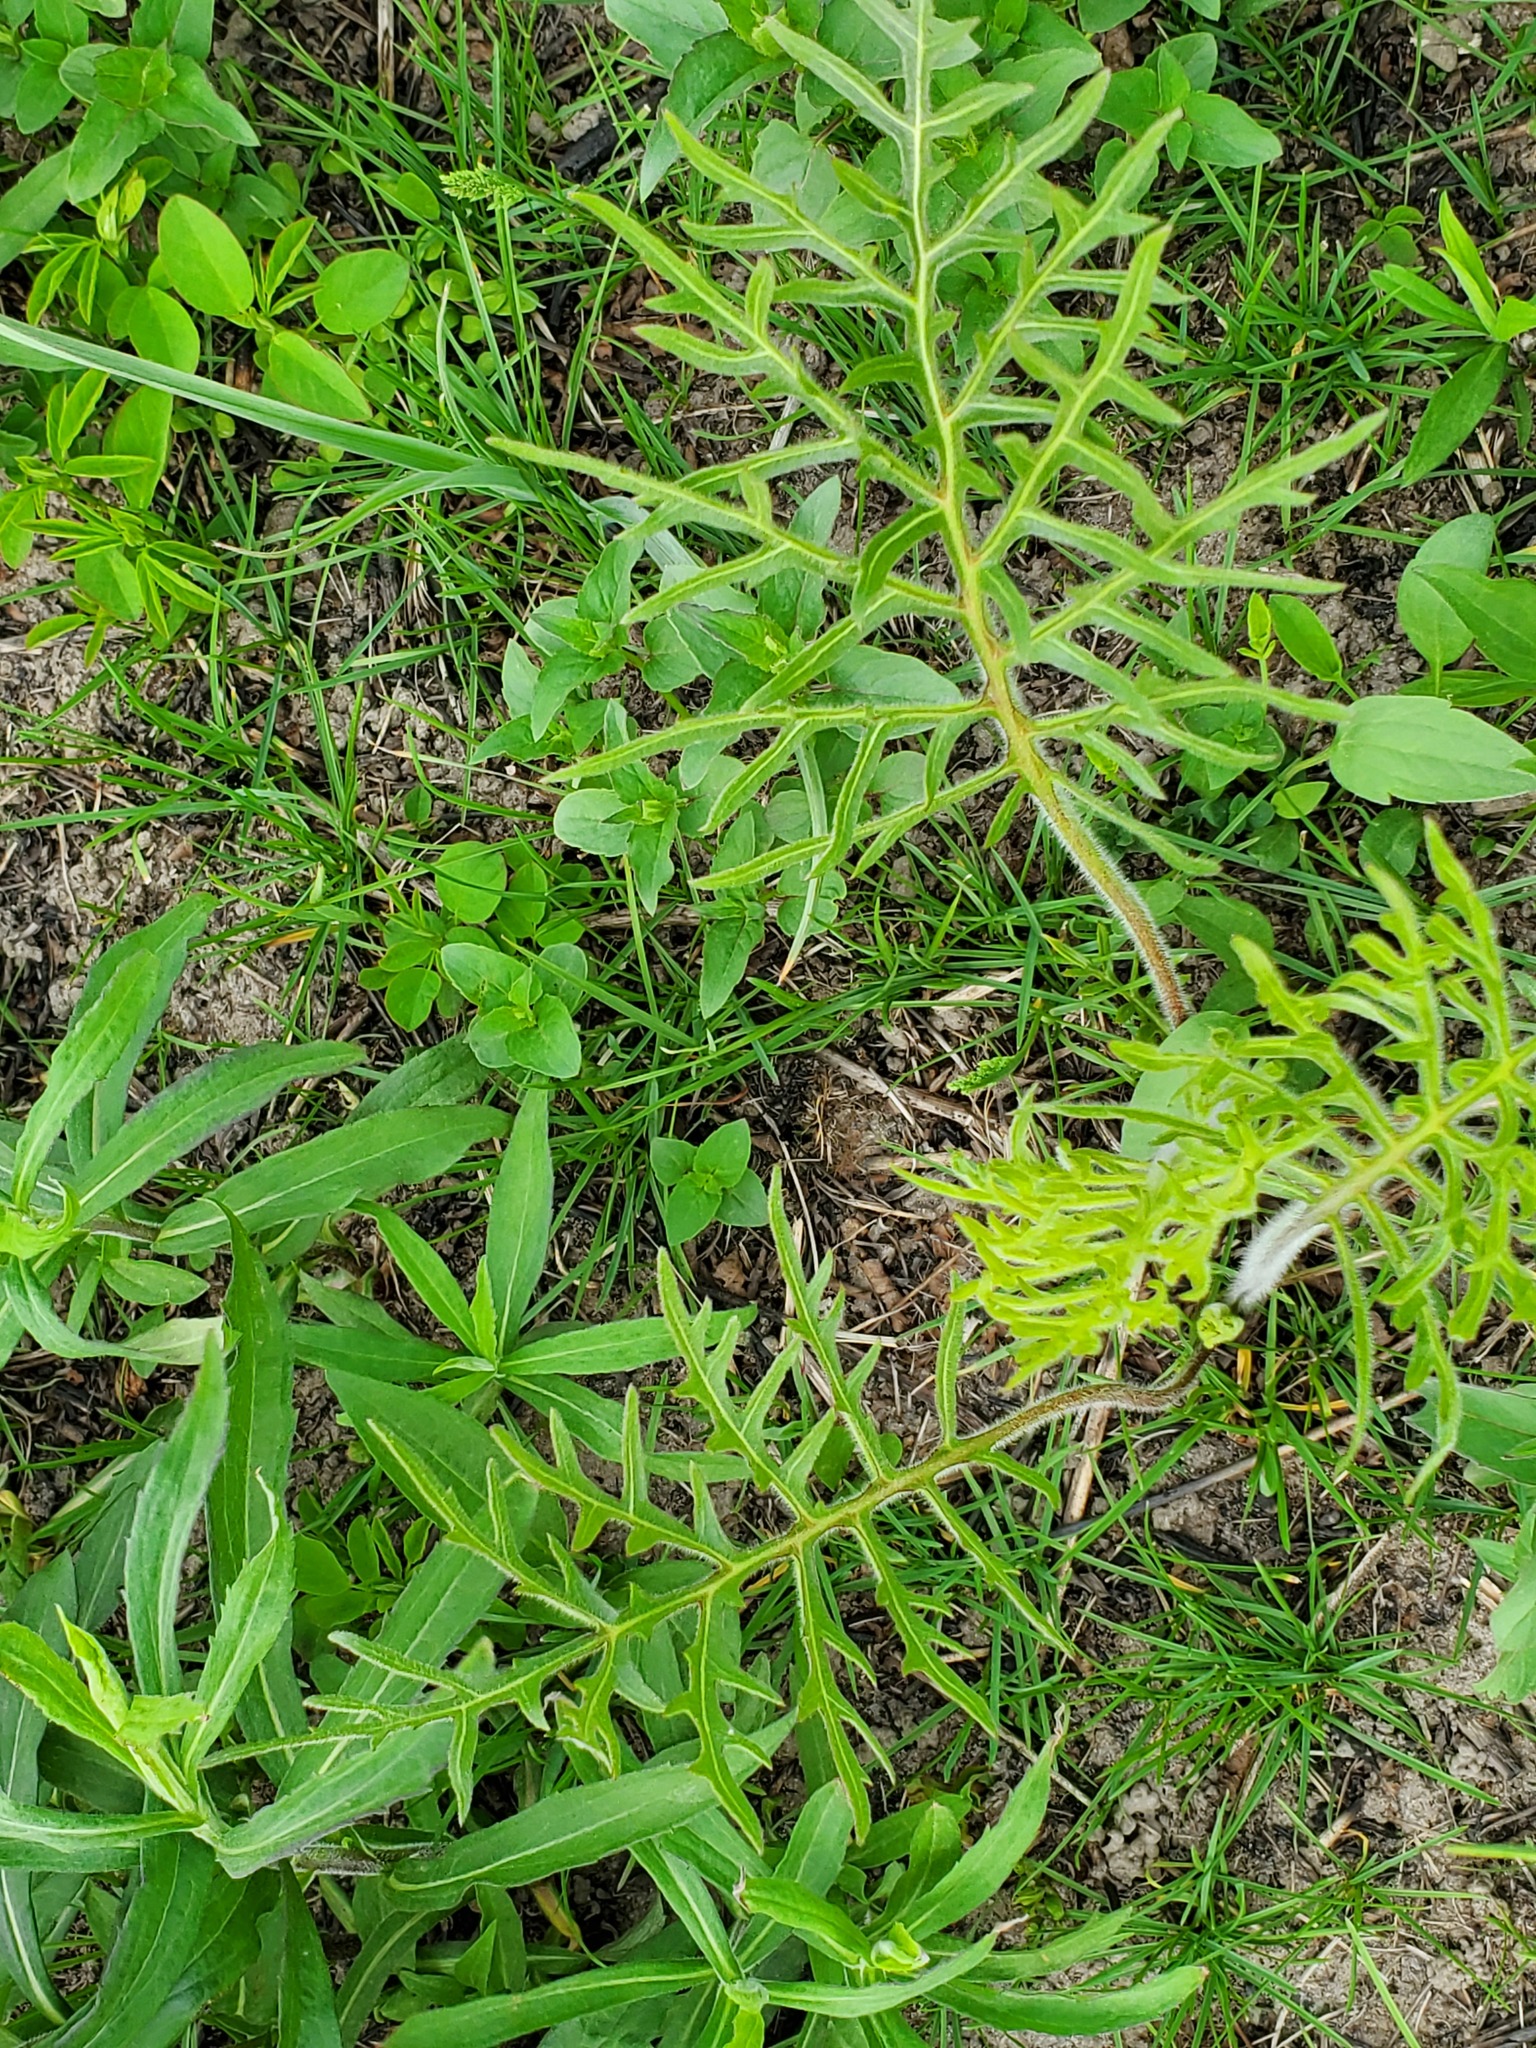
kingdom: Plantae
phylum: Tracheophyta
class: Magnoliopsida
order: Asterales
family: Asteraceae
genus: Silphium
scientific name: Silphium laciniatum
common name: Polarplant
